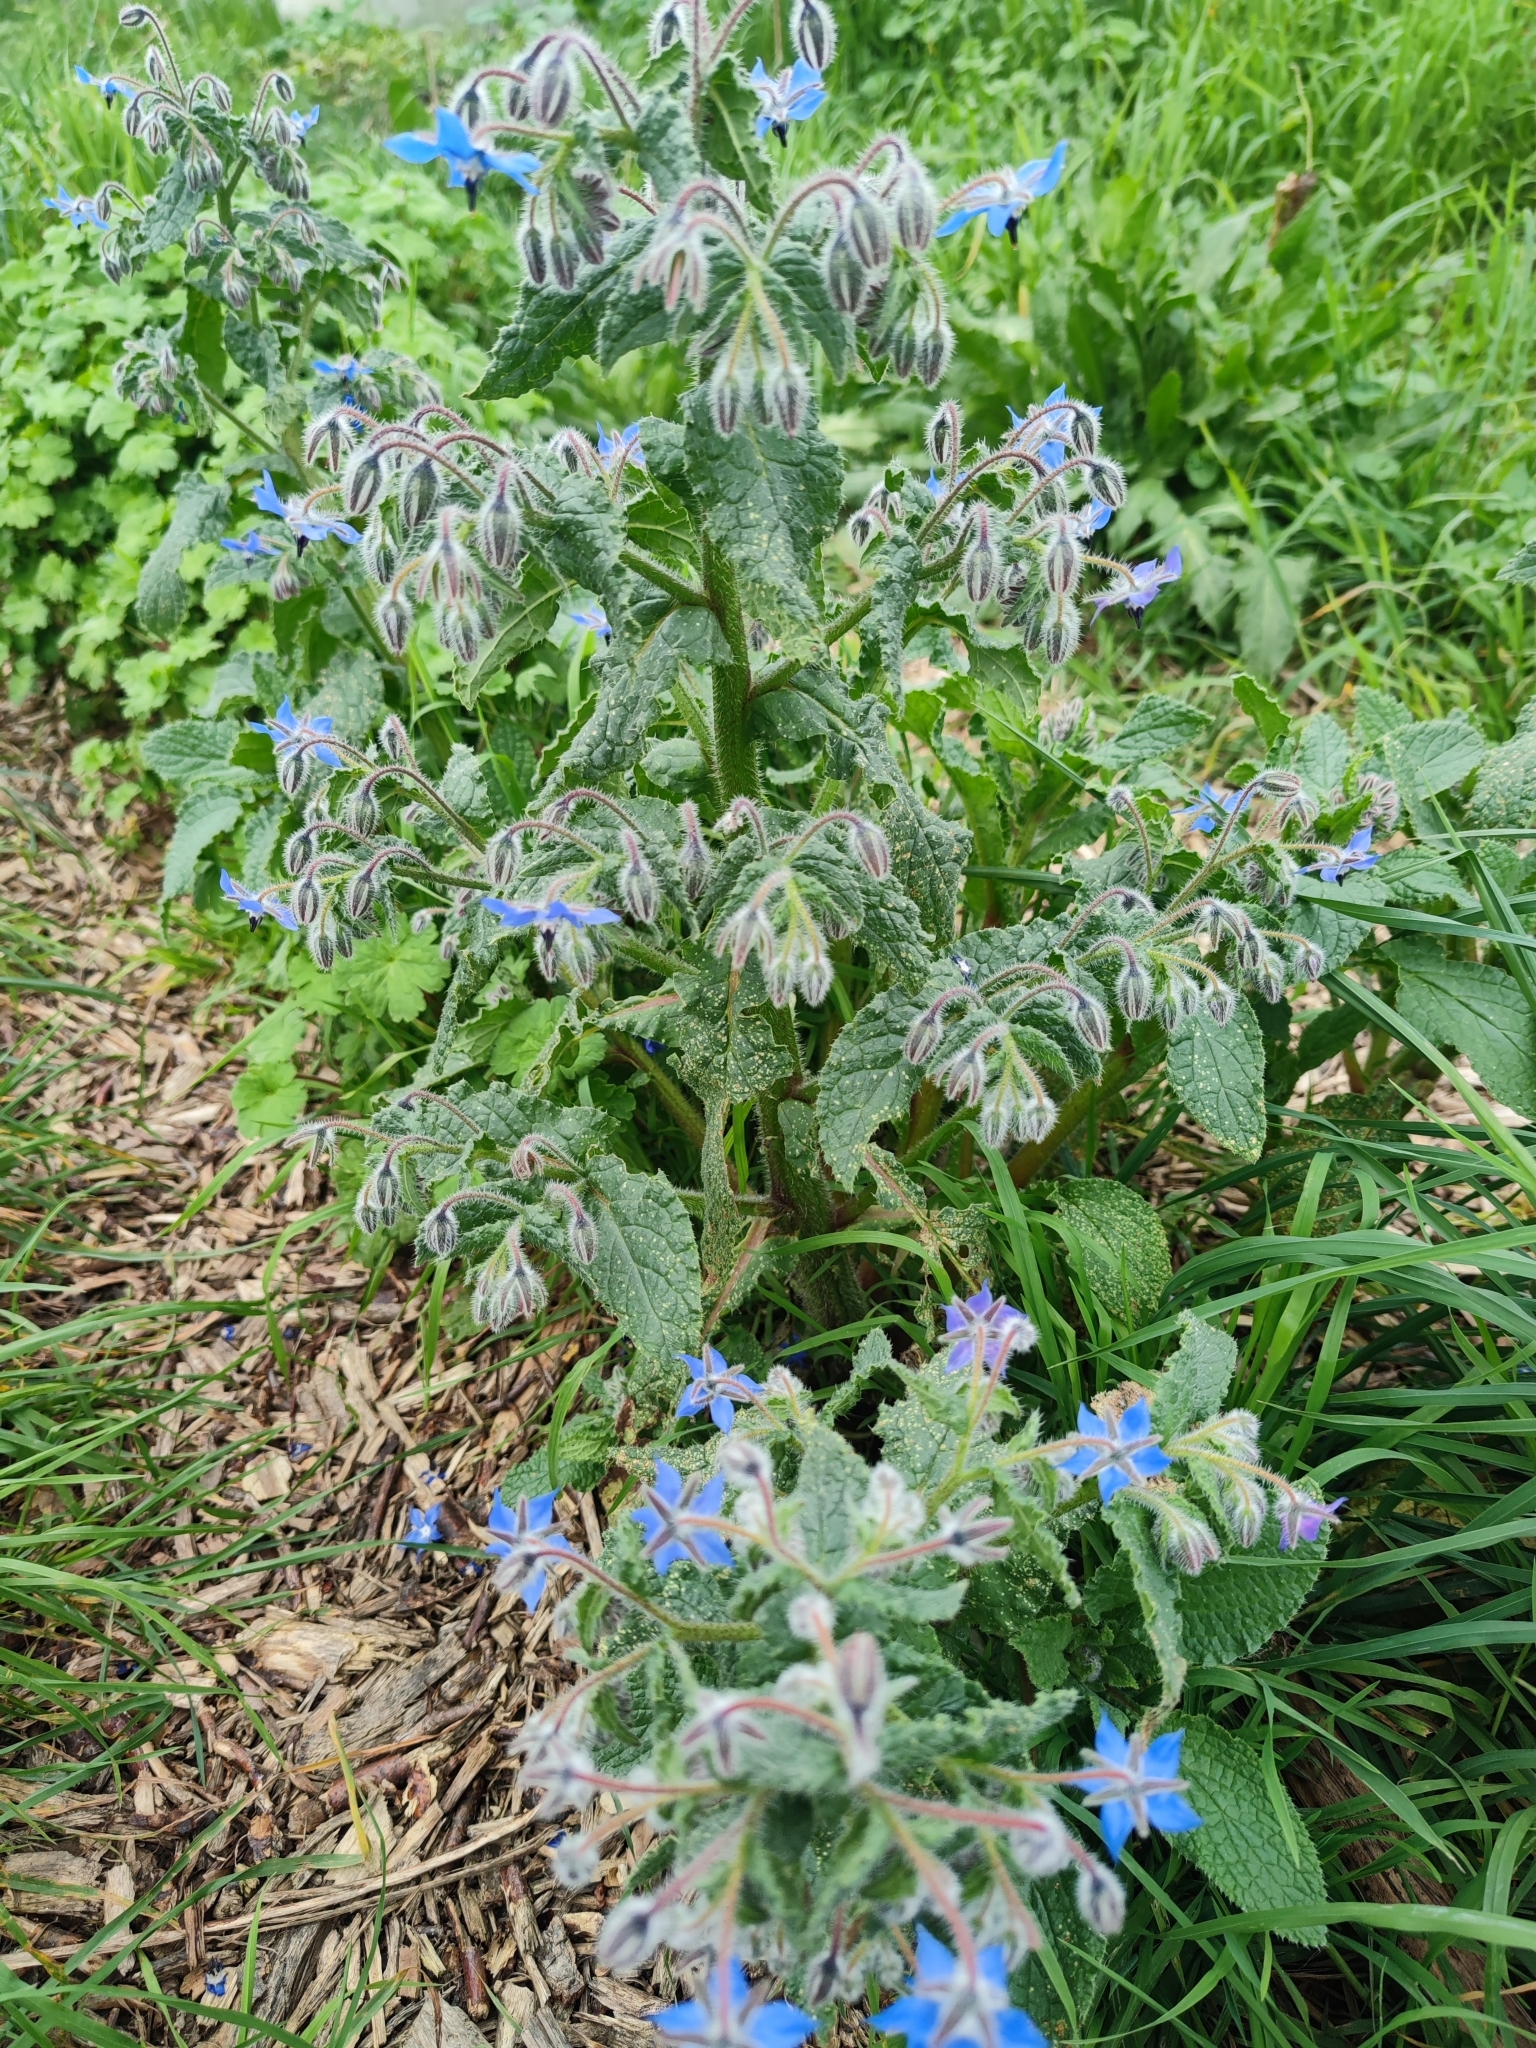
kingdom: Plantae
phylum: Tracheophyta
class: Magnoliopsida
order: Boraginales
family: Boraginaceae
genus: Borago
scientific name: Borago officinalis
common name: Borage
